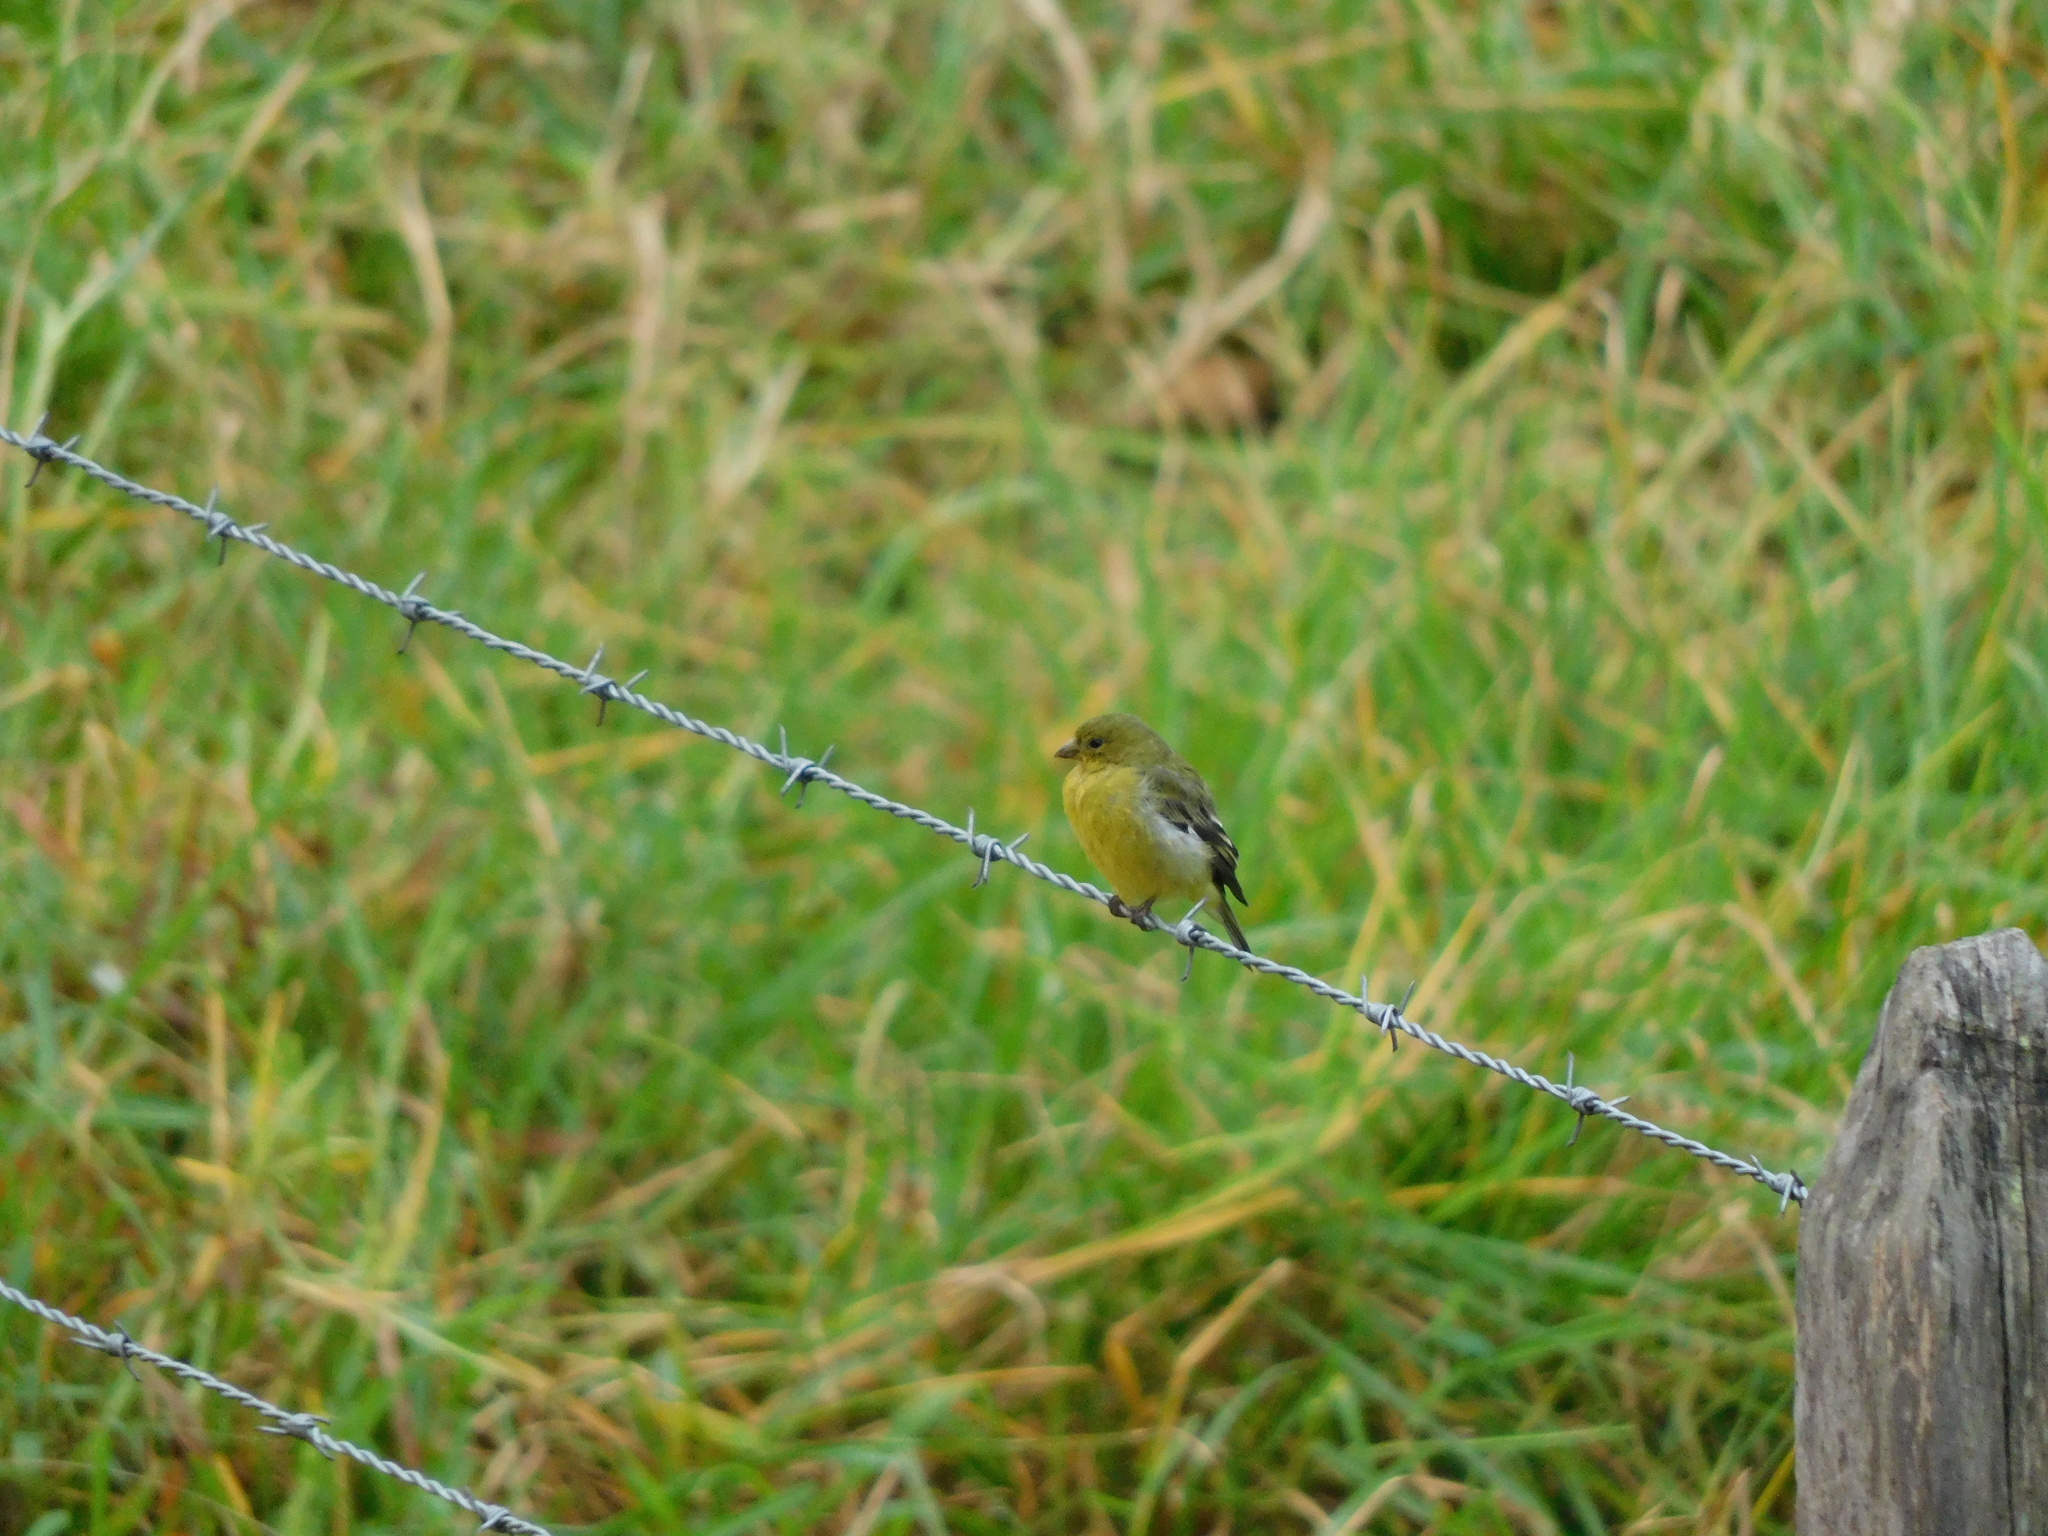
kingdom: Animalia
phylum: Chordata
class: Aves
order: Passeriformes
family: Fringillidae
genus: Spinus
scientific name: Spinus psaltria
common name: Lesser goldfinch
